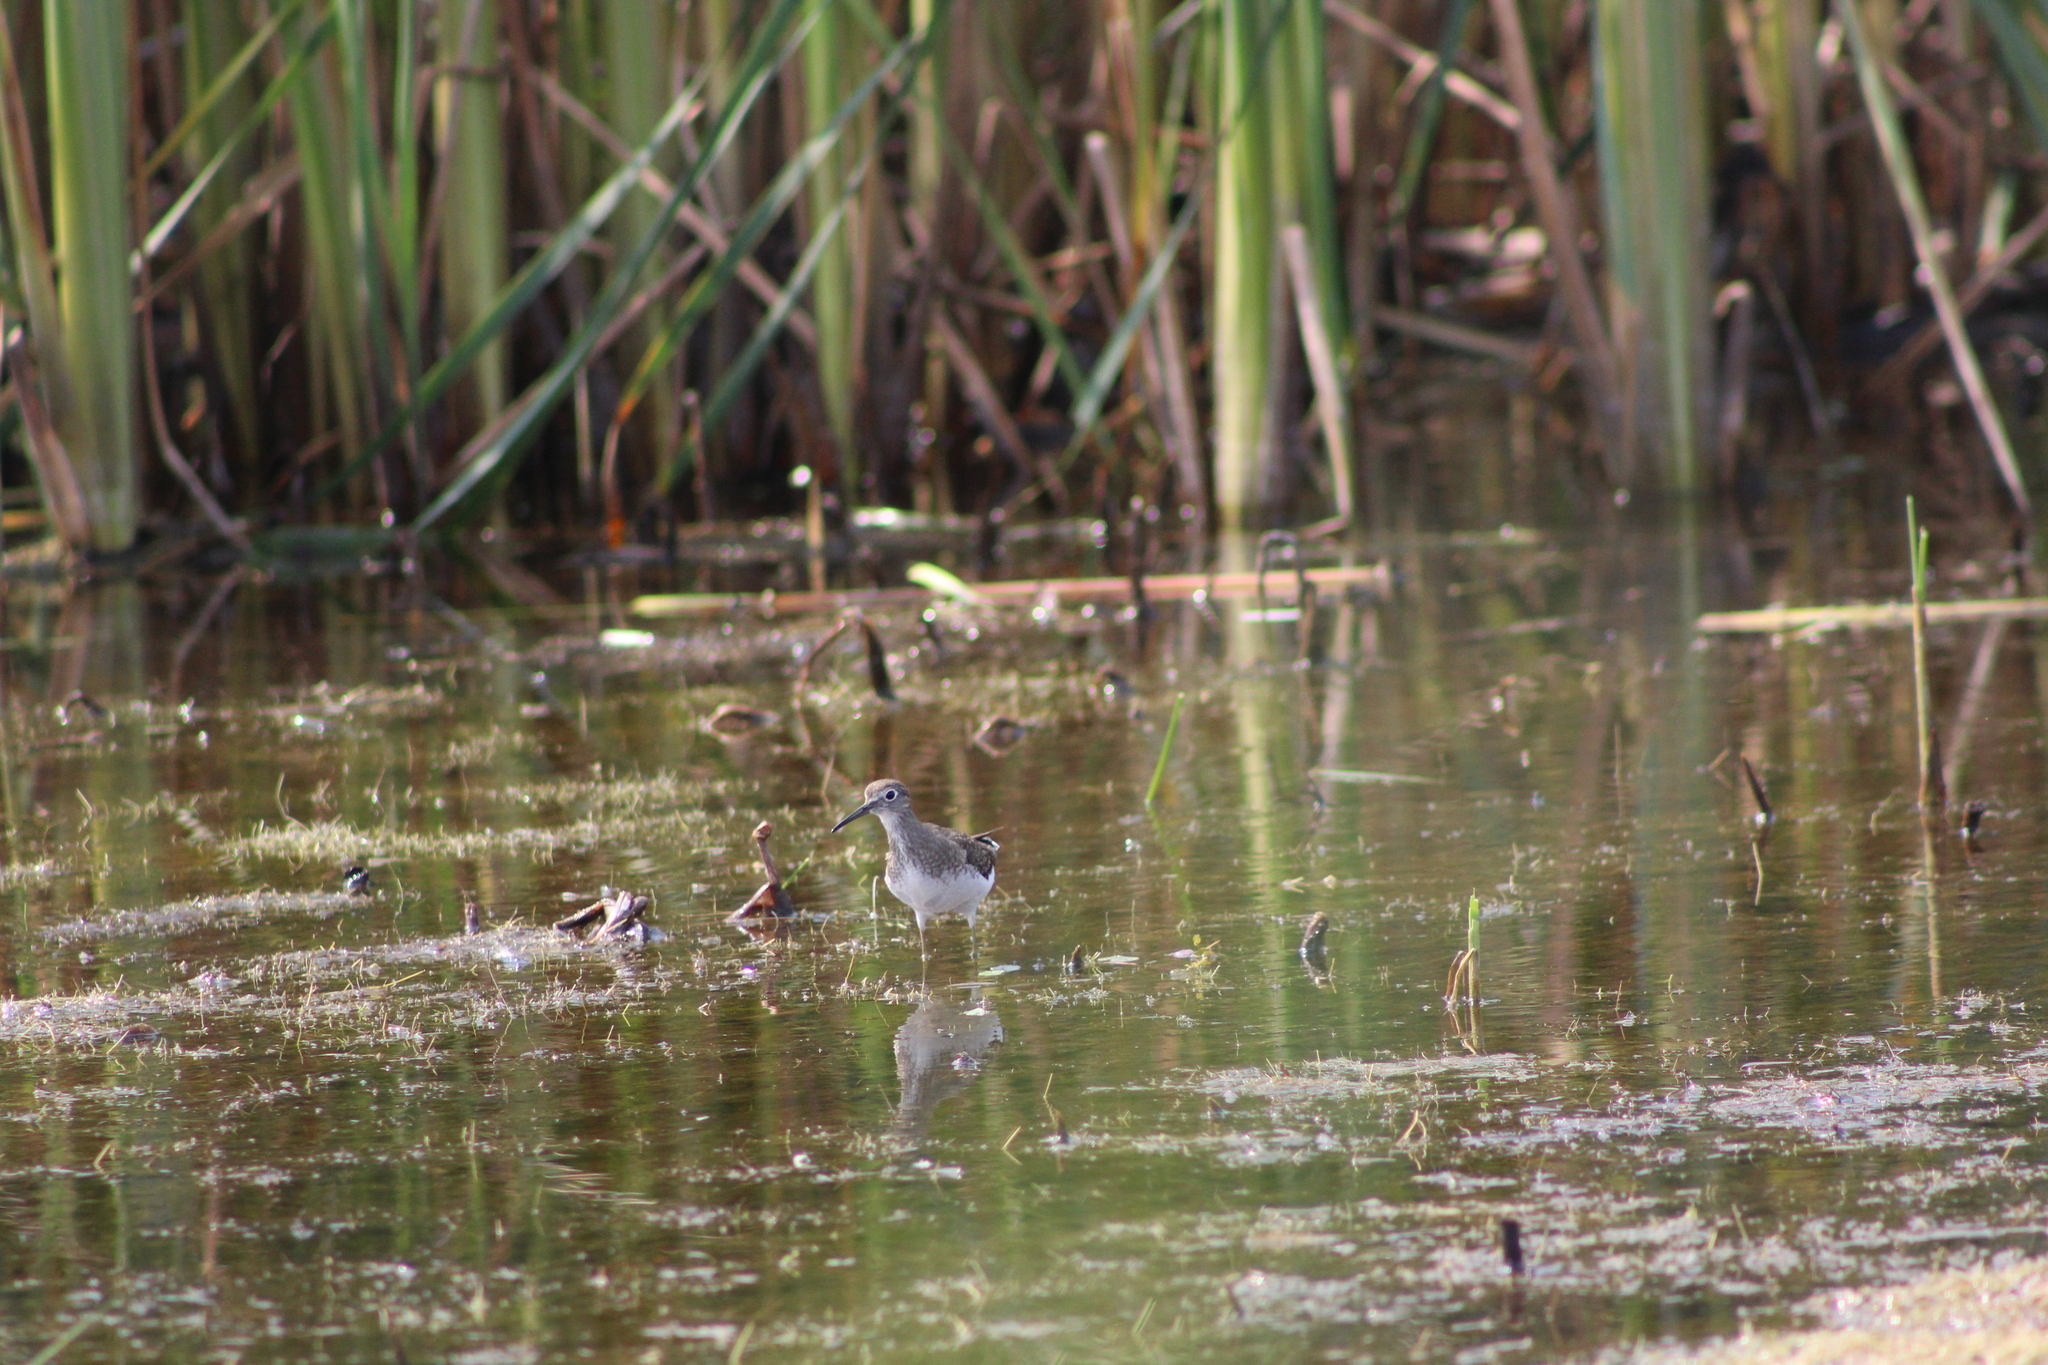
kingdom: Animalia
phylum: Chordata
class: Aves
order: Charadriiformes
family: Scolopacidae
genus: Tringa
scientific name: Tringa solitaria
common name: Solitary sandpiper
